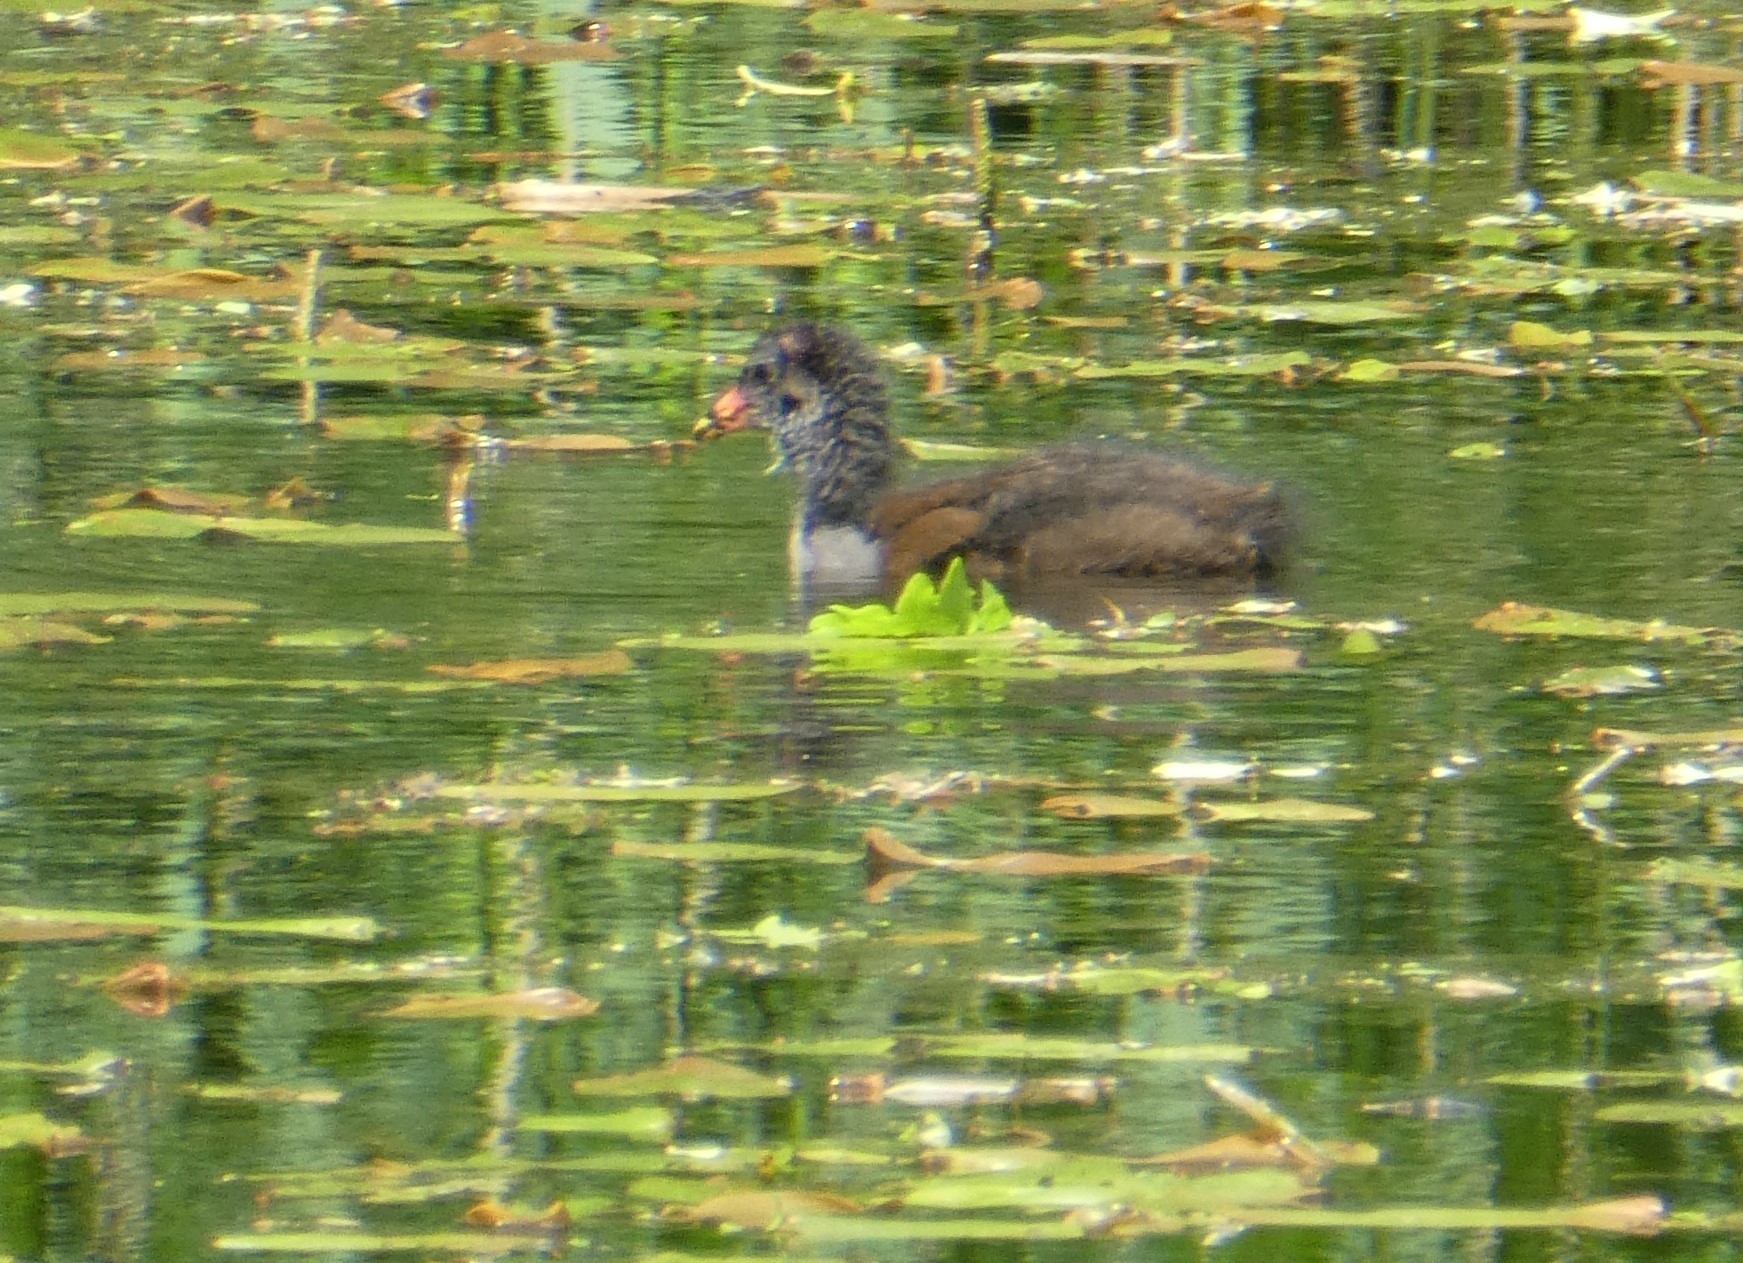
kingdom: Animalia
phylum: Chordata
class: Aves
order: Gruiformes
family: Rallidae
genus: Gallinula
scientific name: Gallinula chloropus
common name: Common moorhen
